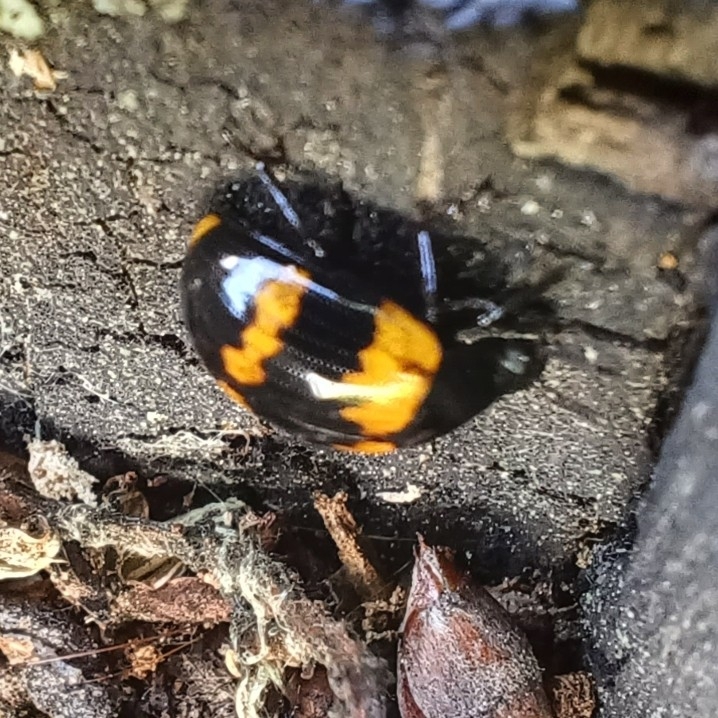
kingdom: Animalia
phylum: Arthropoda
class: Insecta
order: Coleoptera
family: Tenebrionidae
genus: Diaperis
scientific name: Diaperis boleti
